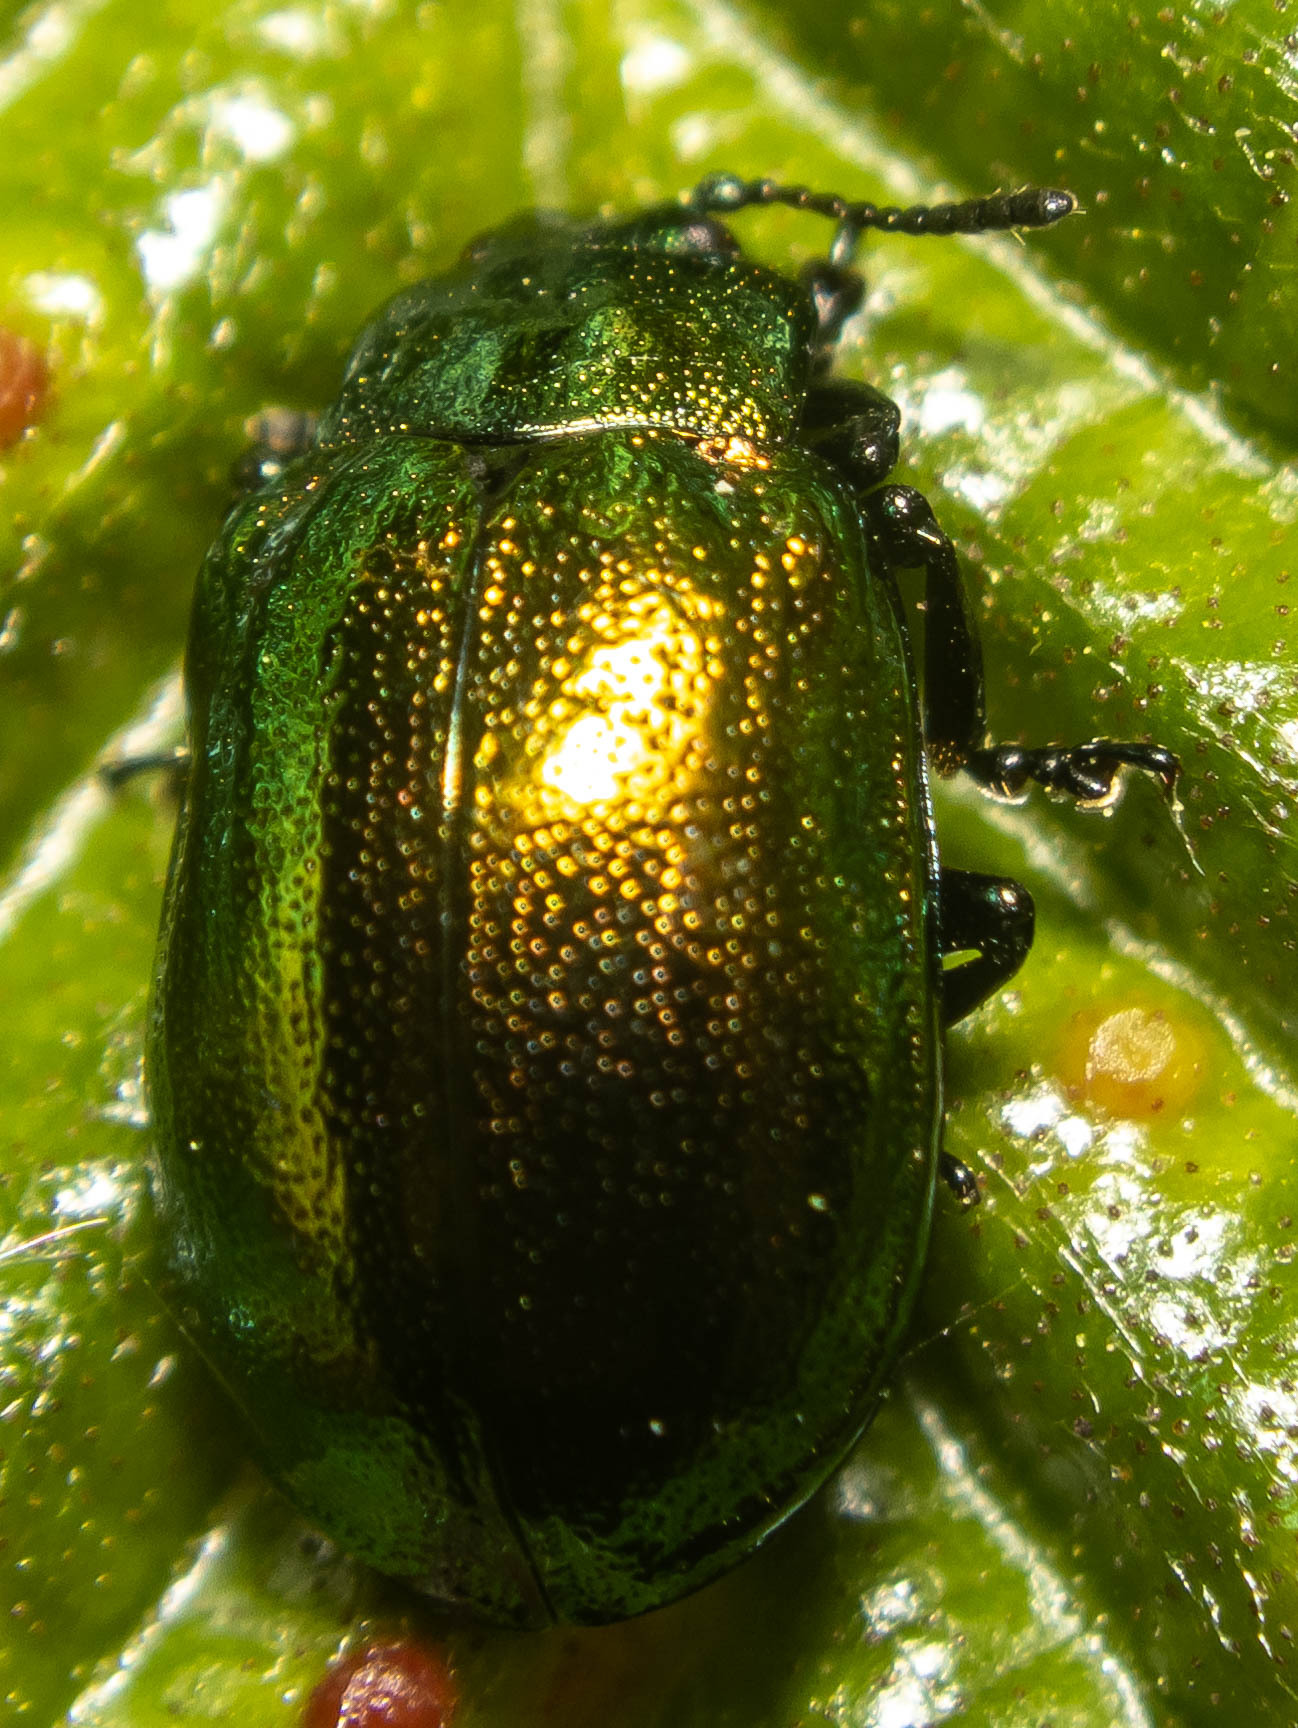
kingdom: Animalia
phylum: Arthropoda
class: Insecta
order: Coleoptera
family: Chrysomelidae
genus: Plagiosterna
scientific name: Plagiosterna aenea
